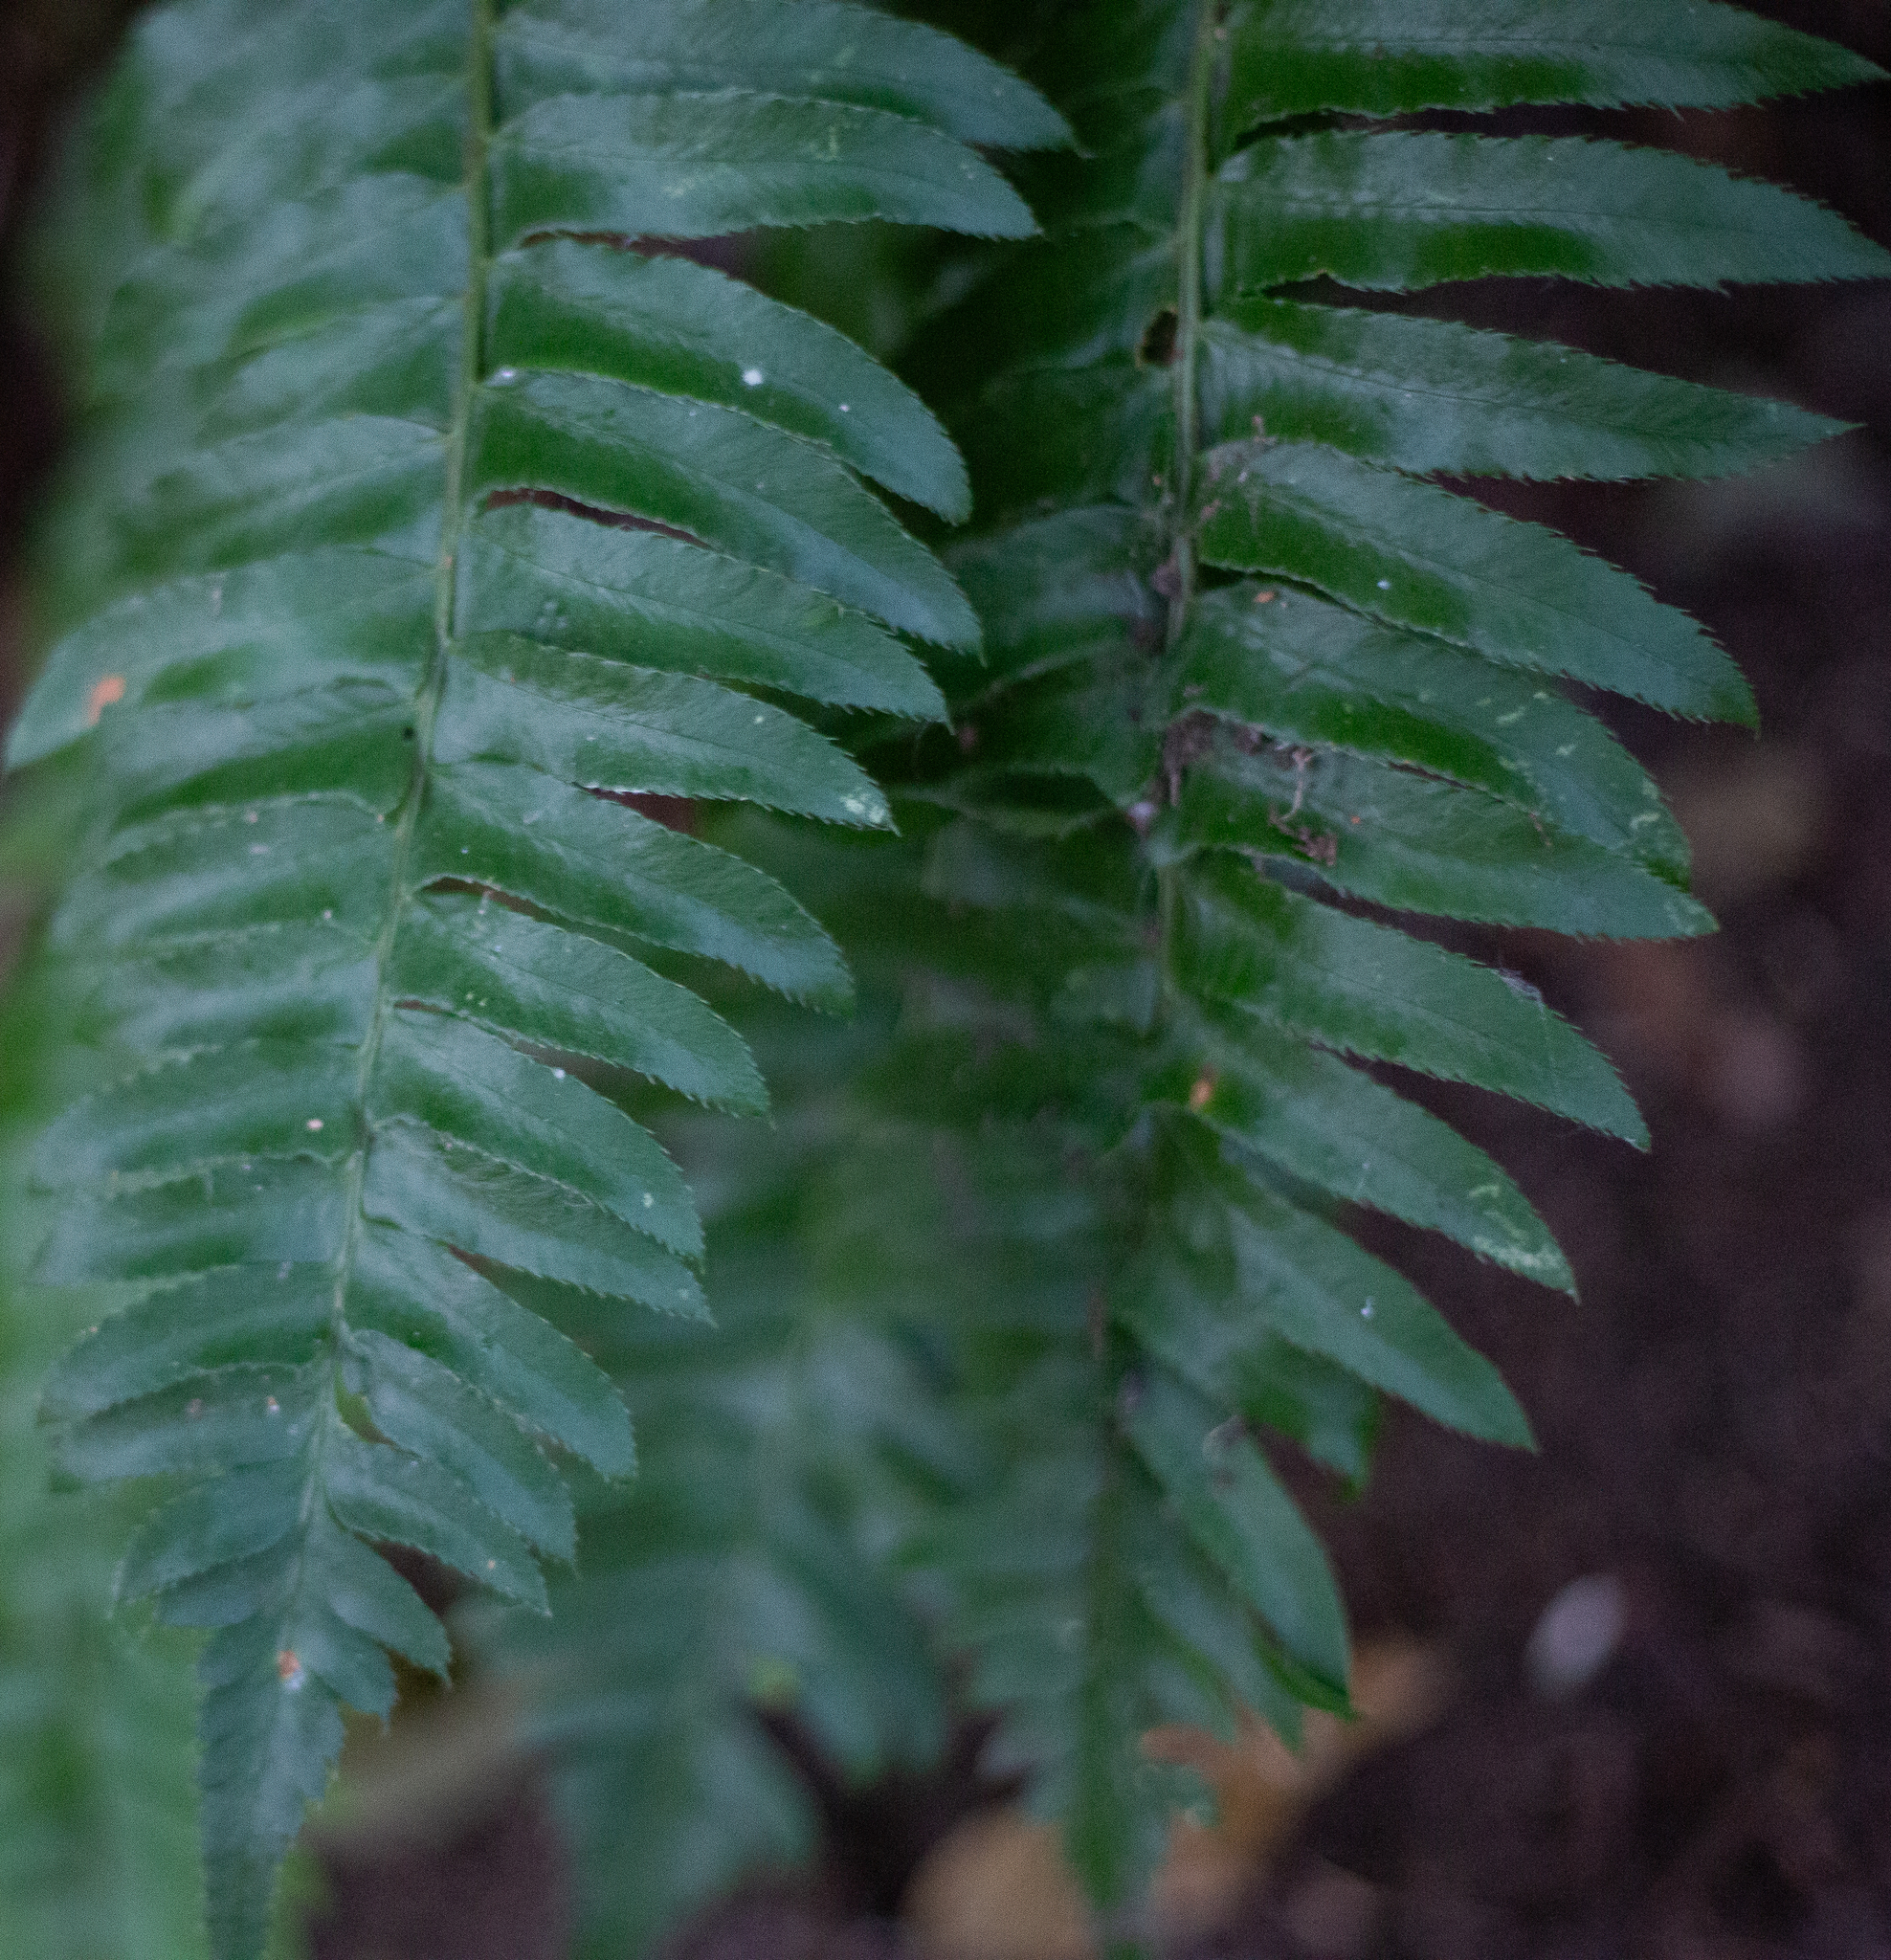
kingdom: Plantae
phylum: Tracheophyta
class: Polypodiopsida
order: Polypodiales
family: Dryopteridaceae
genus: Polystichum
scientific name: Polystichum munitum
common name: Western sword-fern
